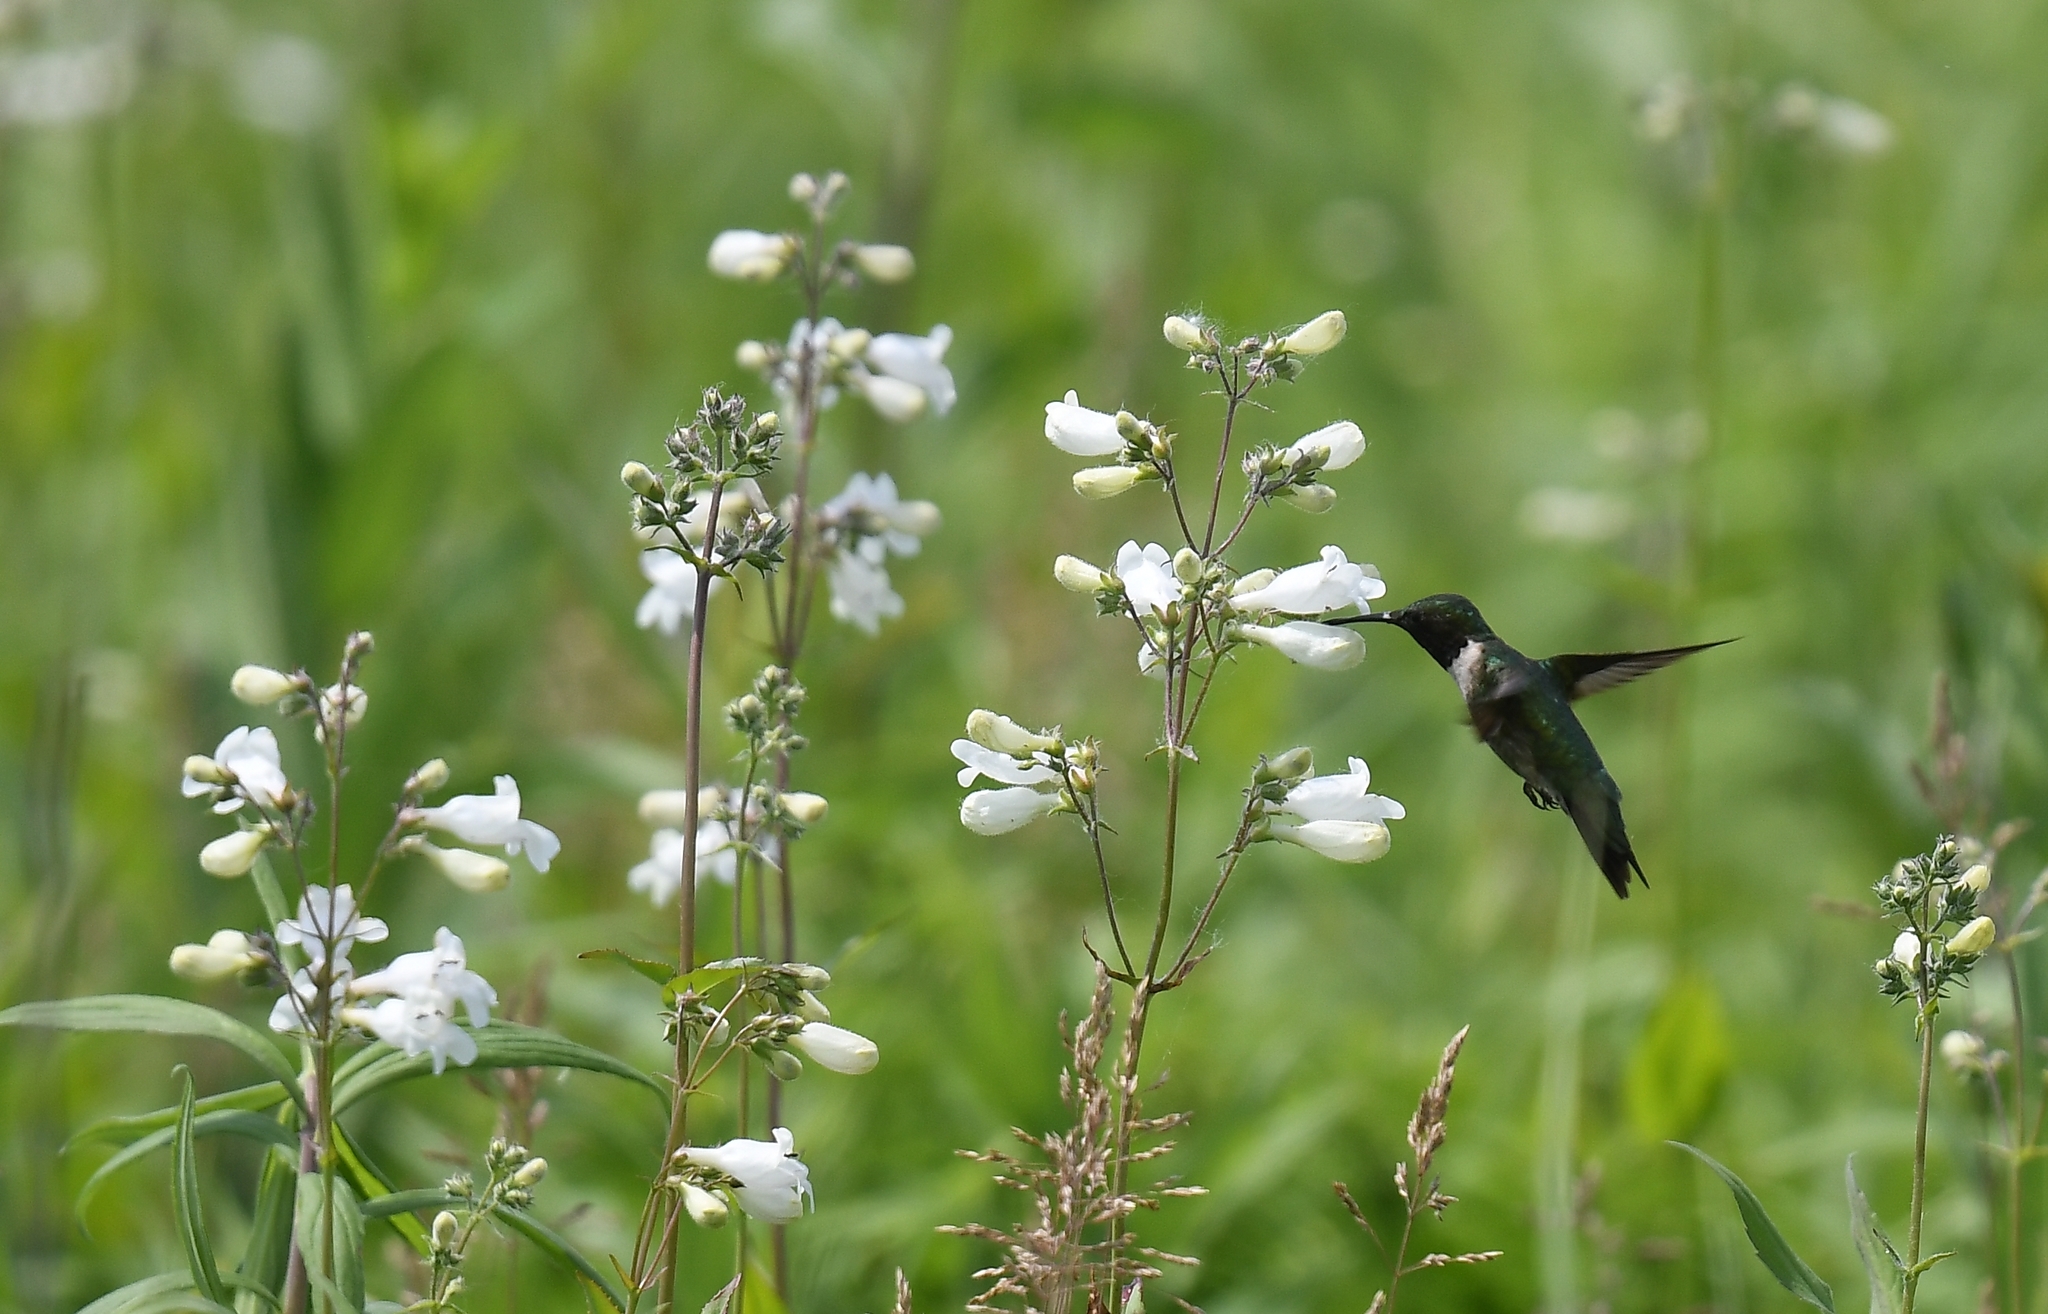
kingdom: Animalia
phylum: Chordata
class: Aves
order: Apodiformes
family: Trochilidae
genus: Archilochus
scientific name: Archilochus colubris
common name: Ruby-throated hummingbird
